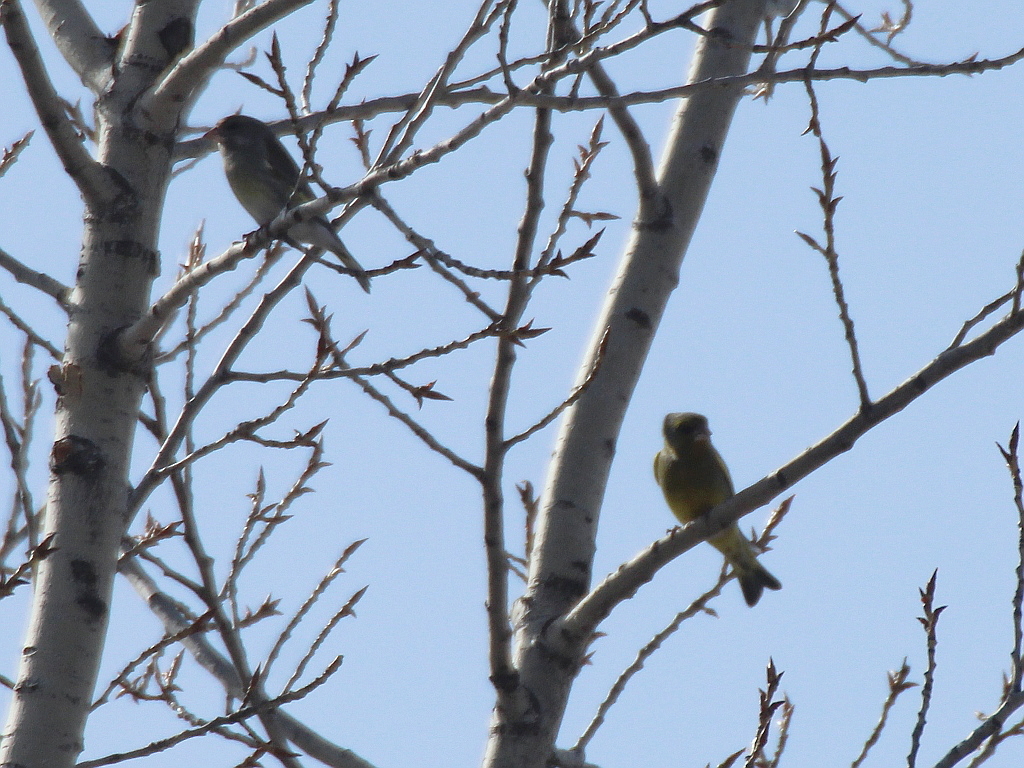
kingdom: Plantae
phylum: Tracheophyta
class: Liliopsida
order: Poales
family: Poaceae
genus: Chloris
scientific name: Chloris chloris
